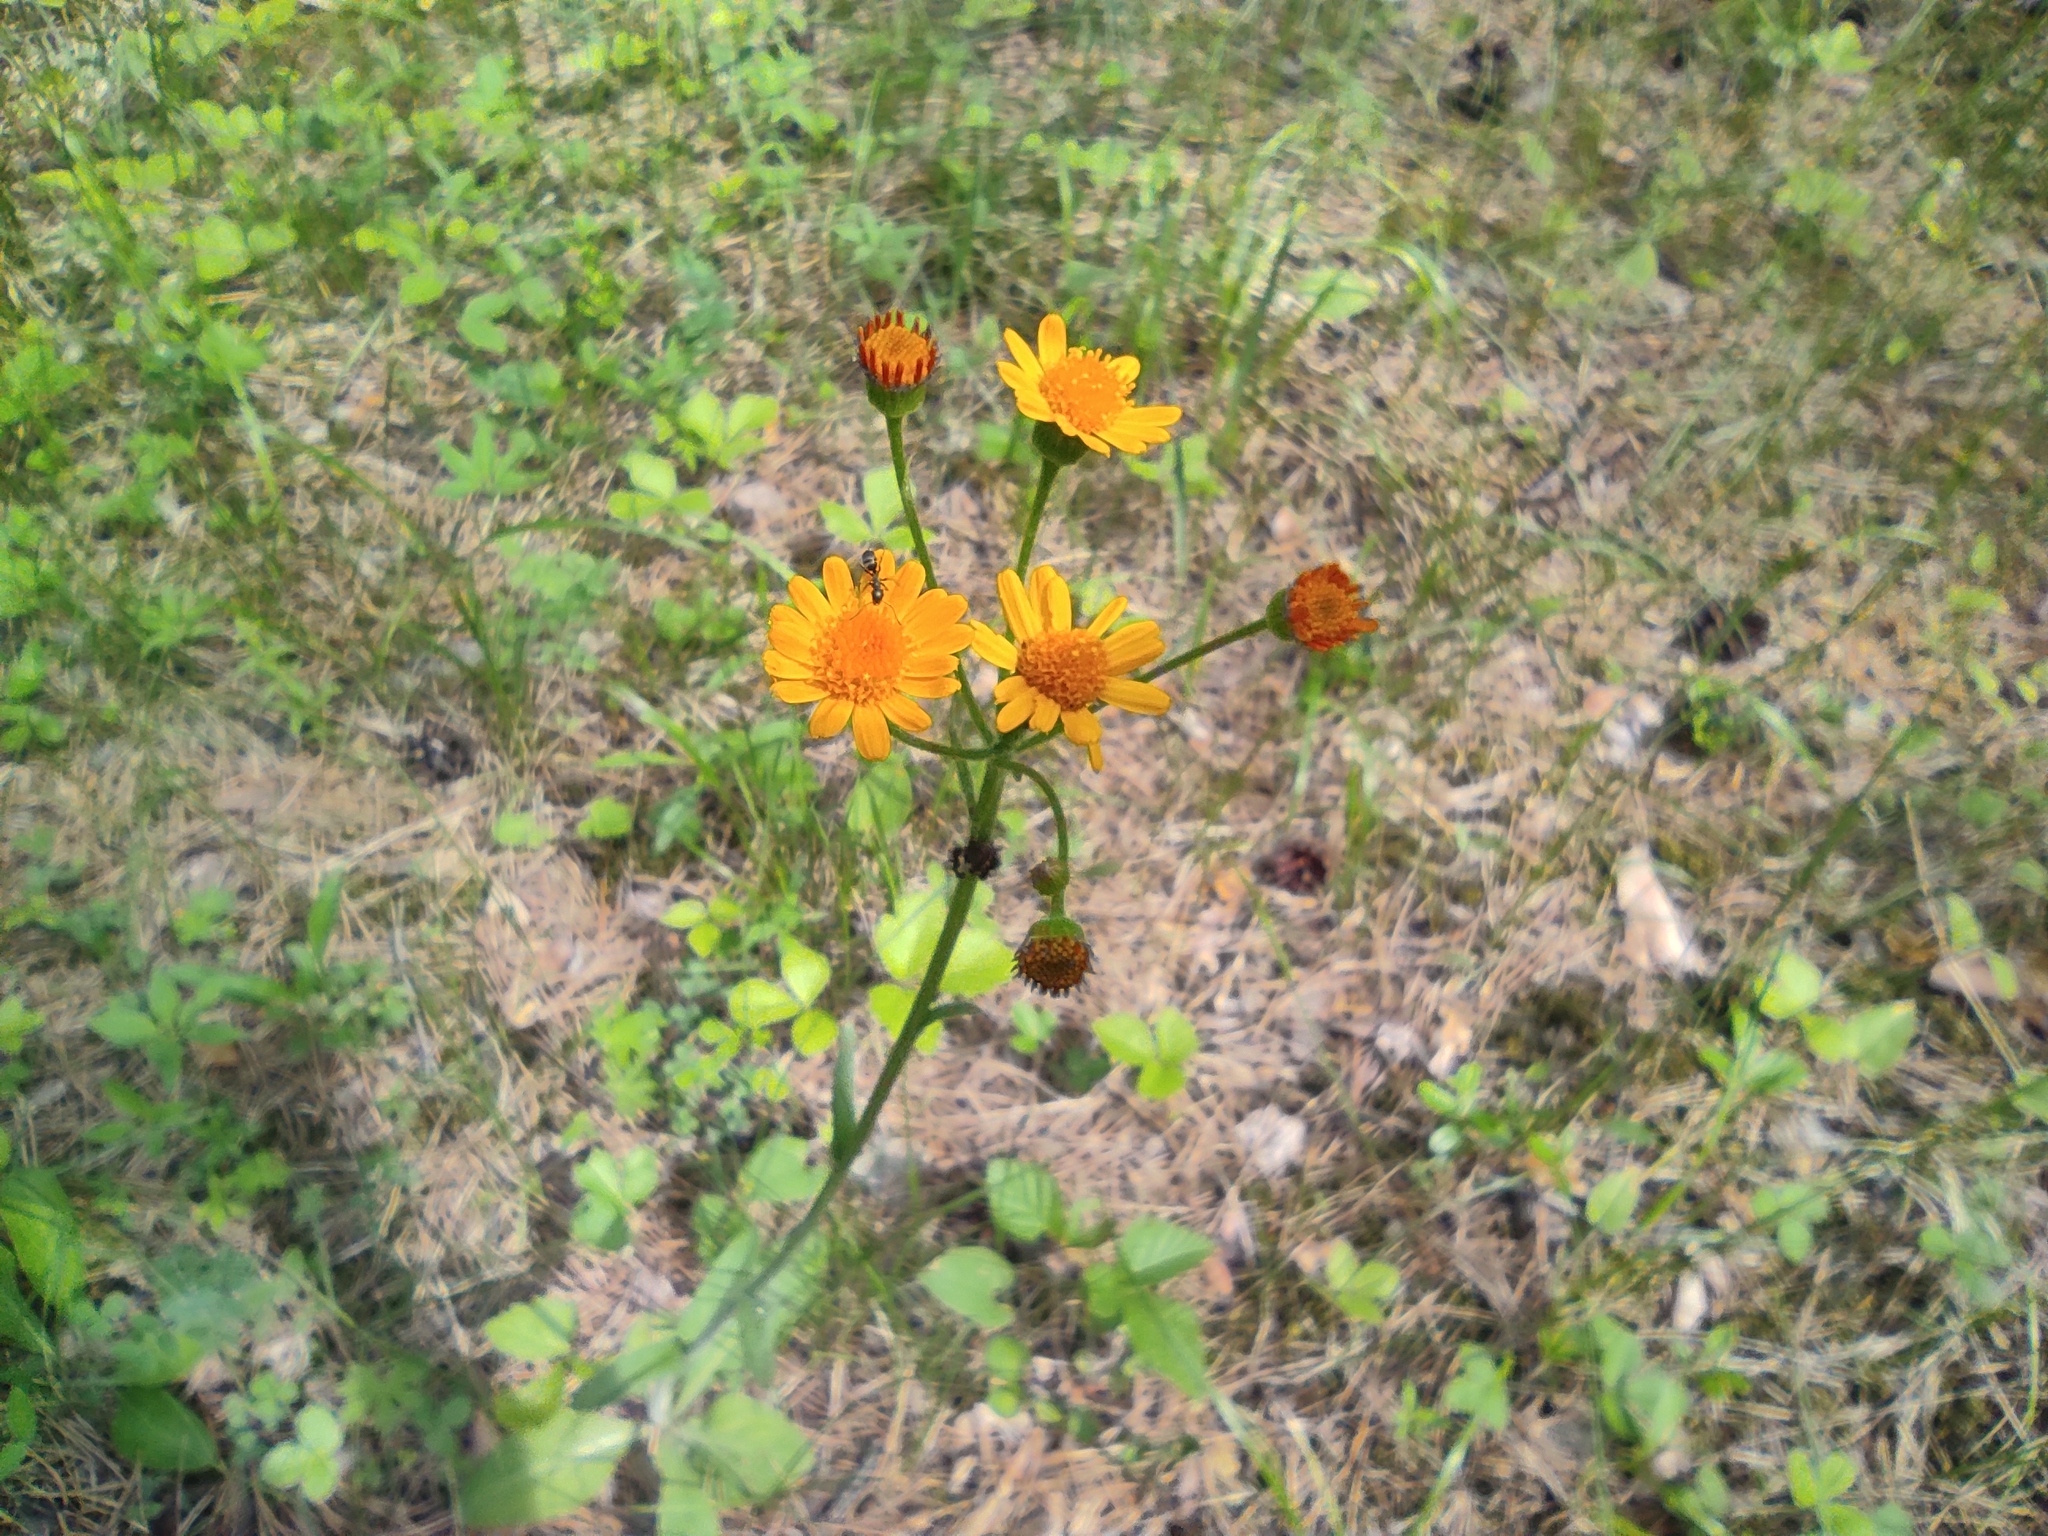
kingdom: Plantae
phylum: Tracheophyta
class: Magnoliopsida
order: Asterales
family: Asteraceae
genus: Tephroseris
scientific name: Tephroseris porphyrantha
